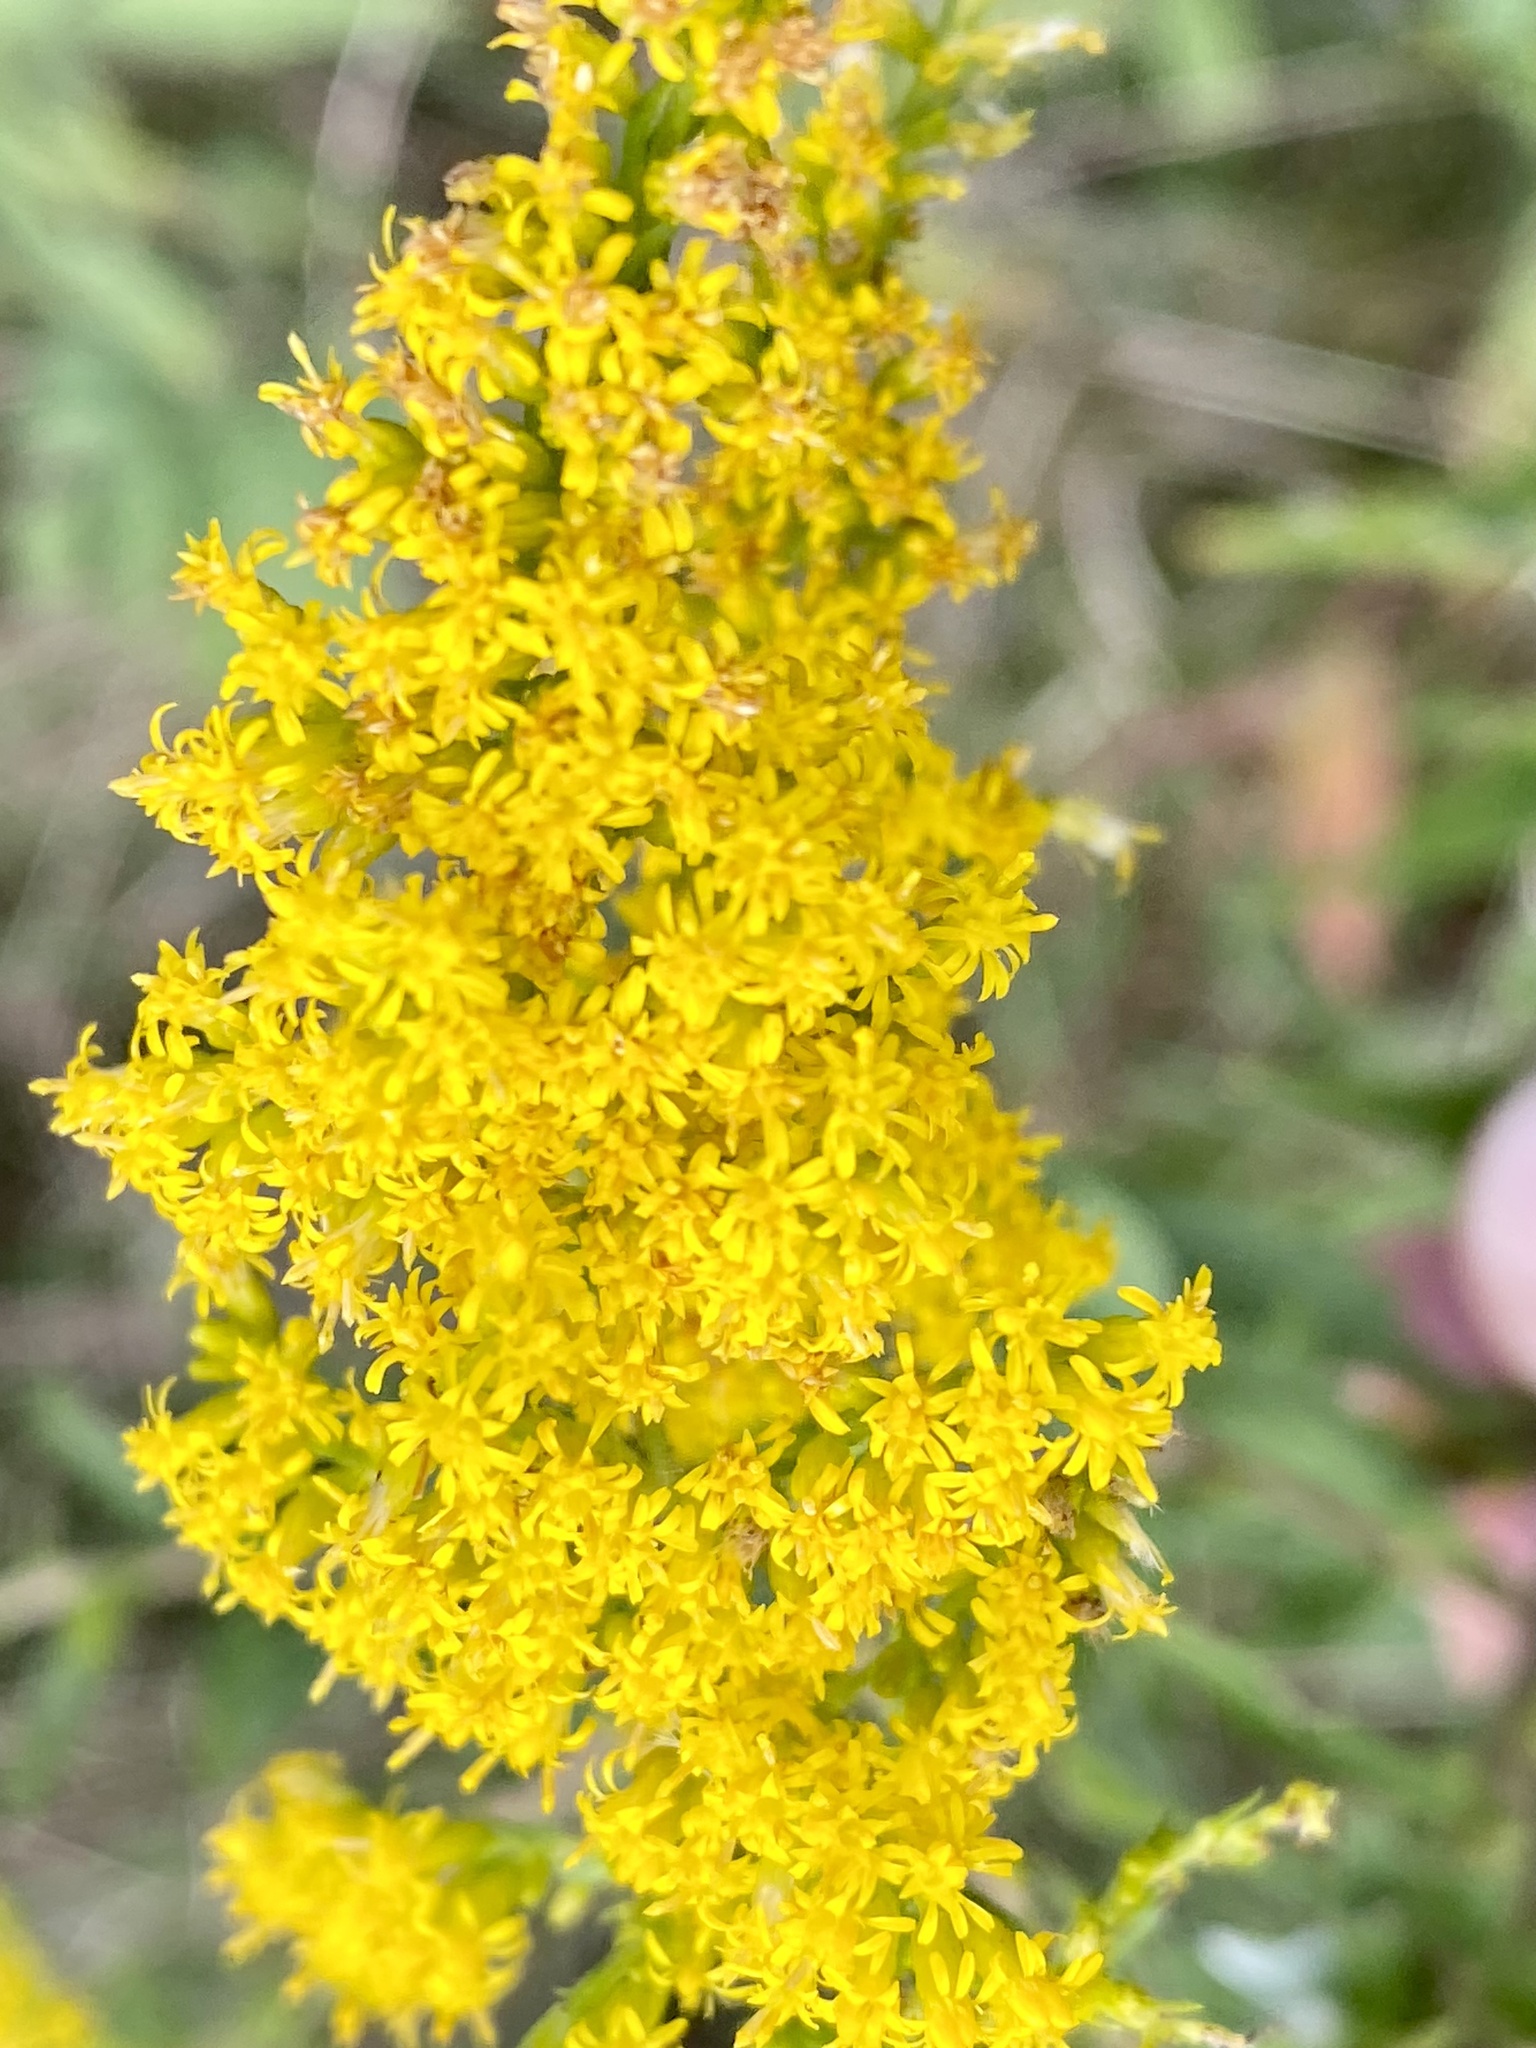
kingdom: Plantae
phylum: Tracheophyta
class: Magnoliopsida
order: Asterales
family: Asteraceae
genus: Solidago
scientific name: Solidago canadensis
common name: Canada goldenrod
